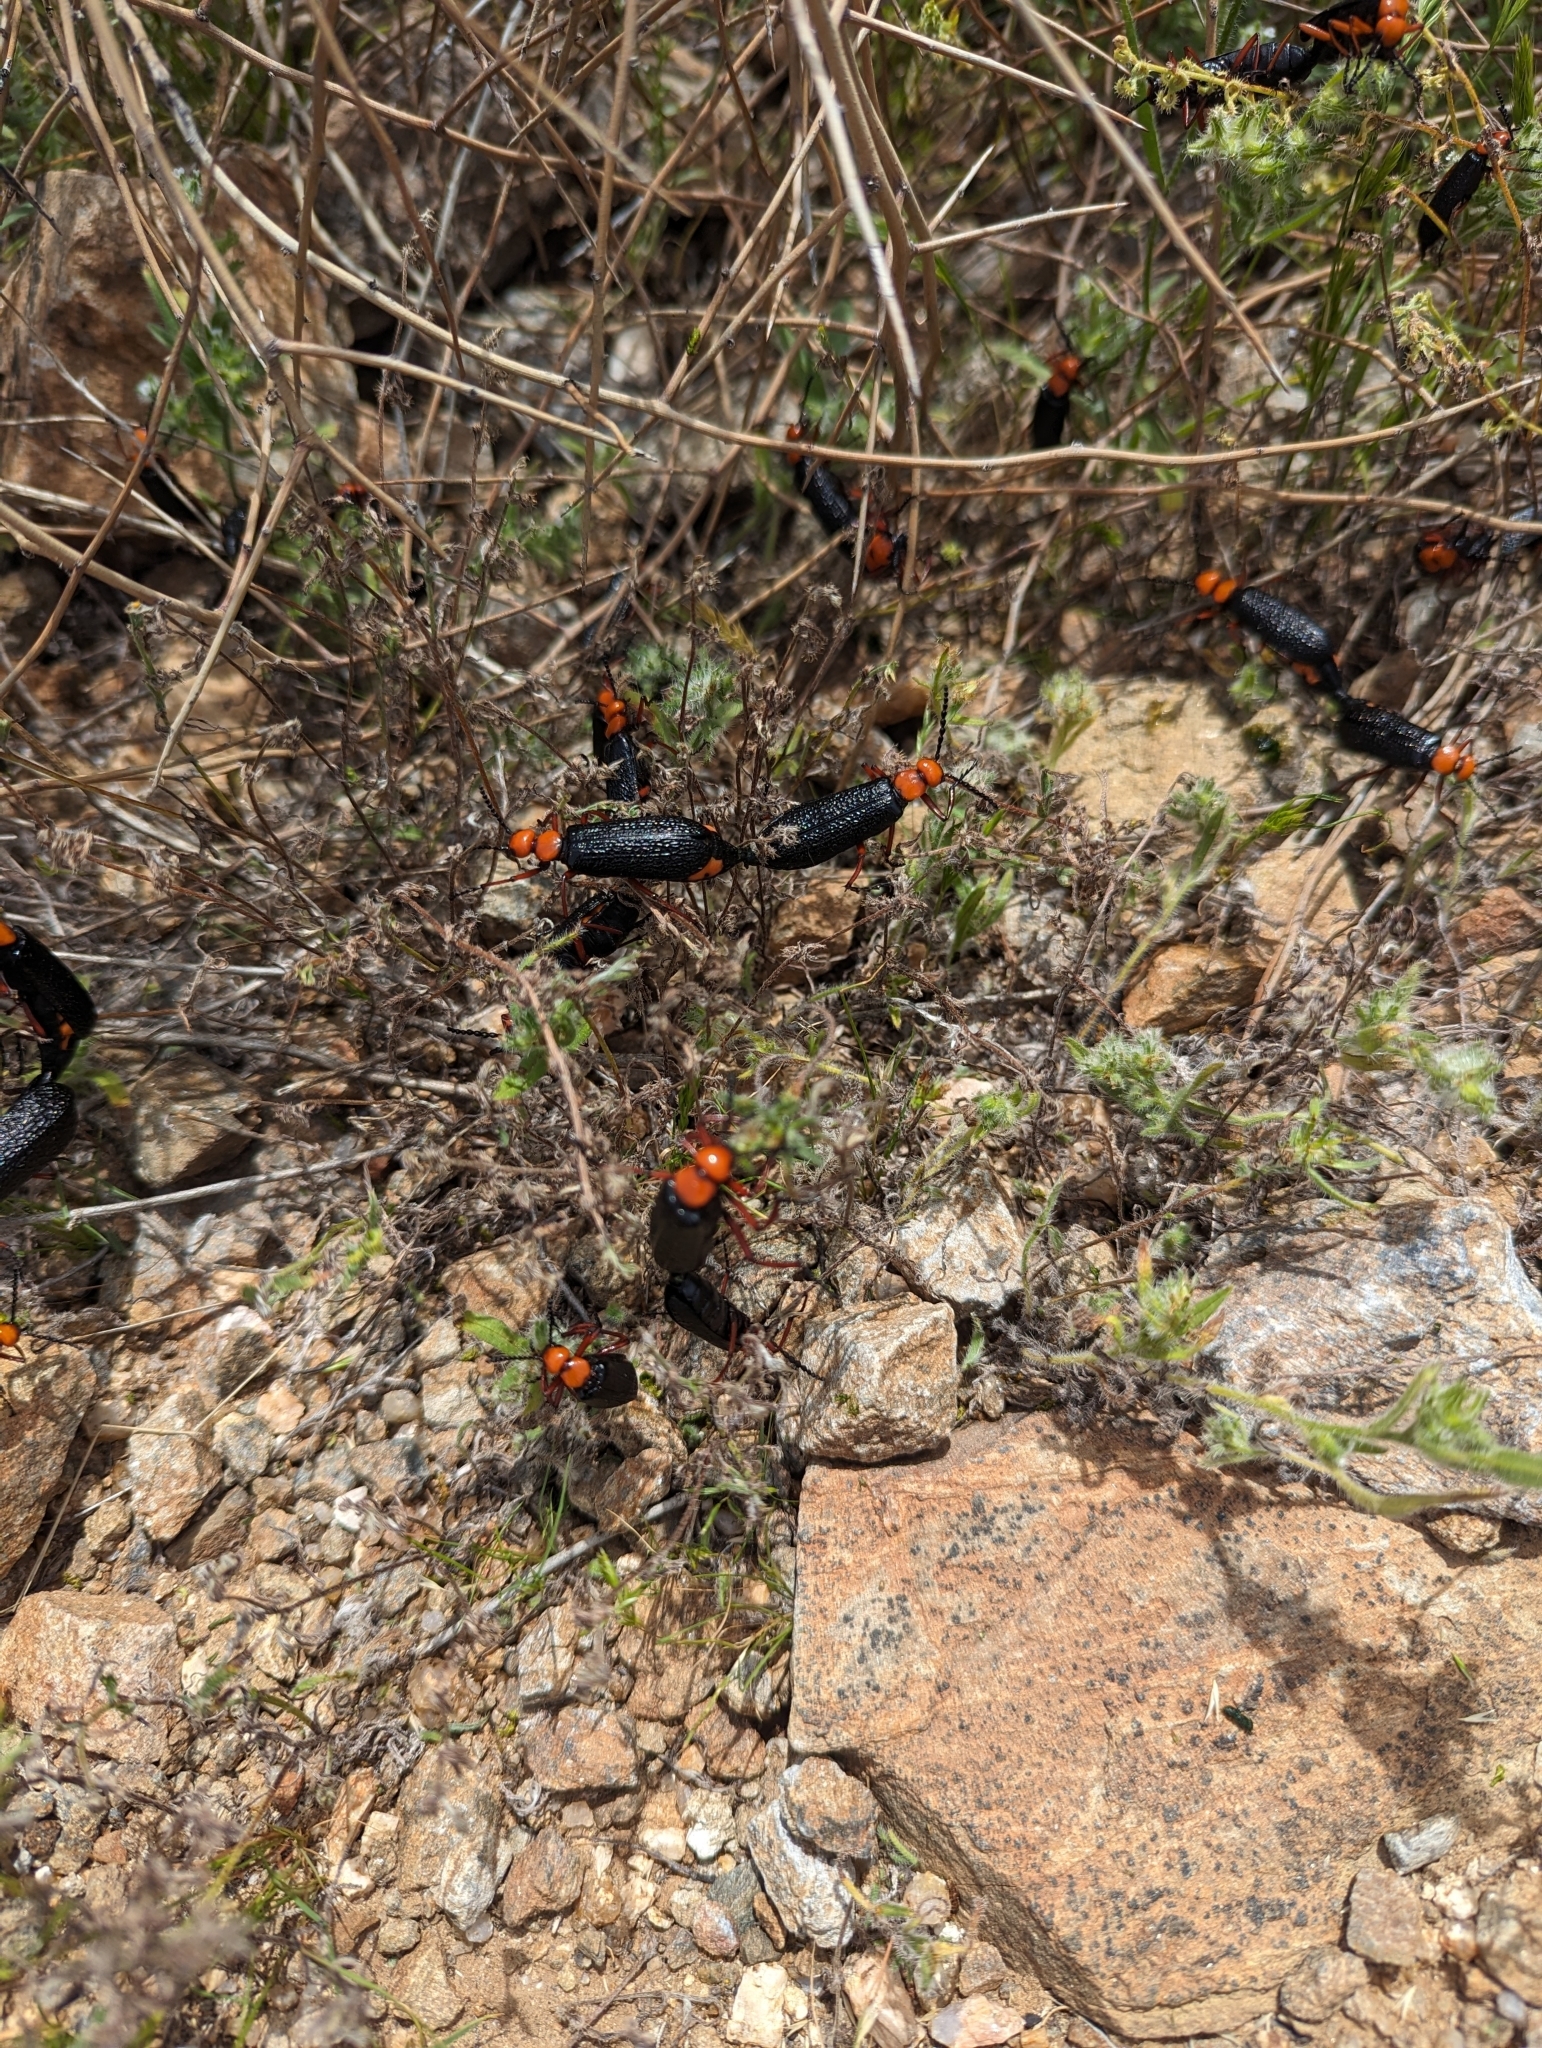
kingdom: Animalia
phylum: Arthropoda
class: Insecta
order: Coleoptera
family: Meloidae
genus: Lytta
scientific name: Lytta magister
